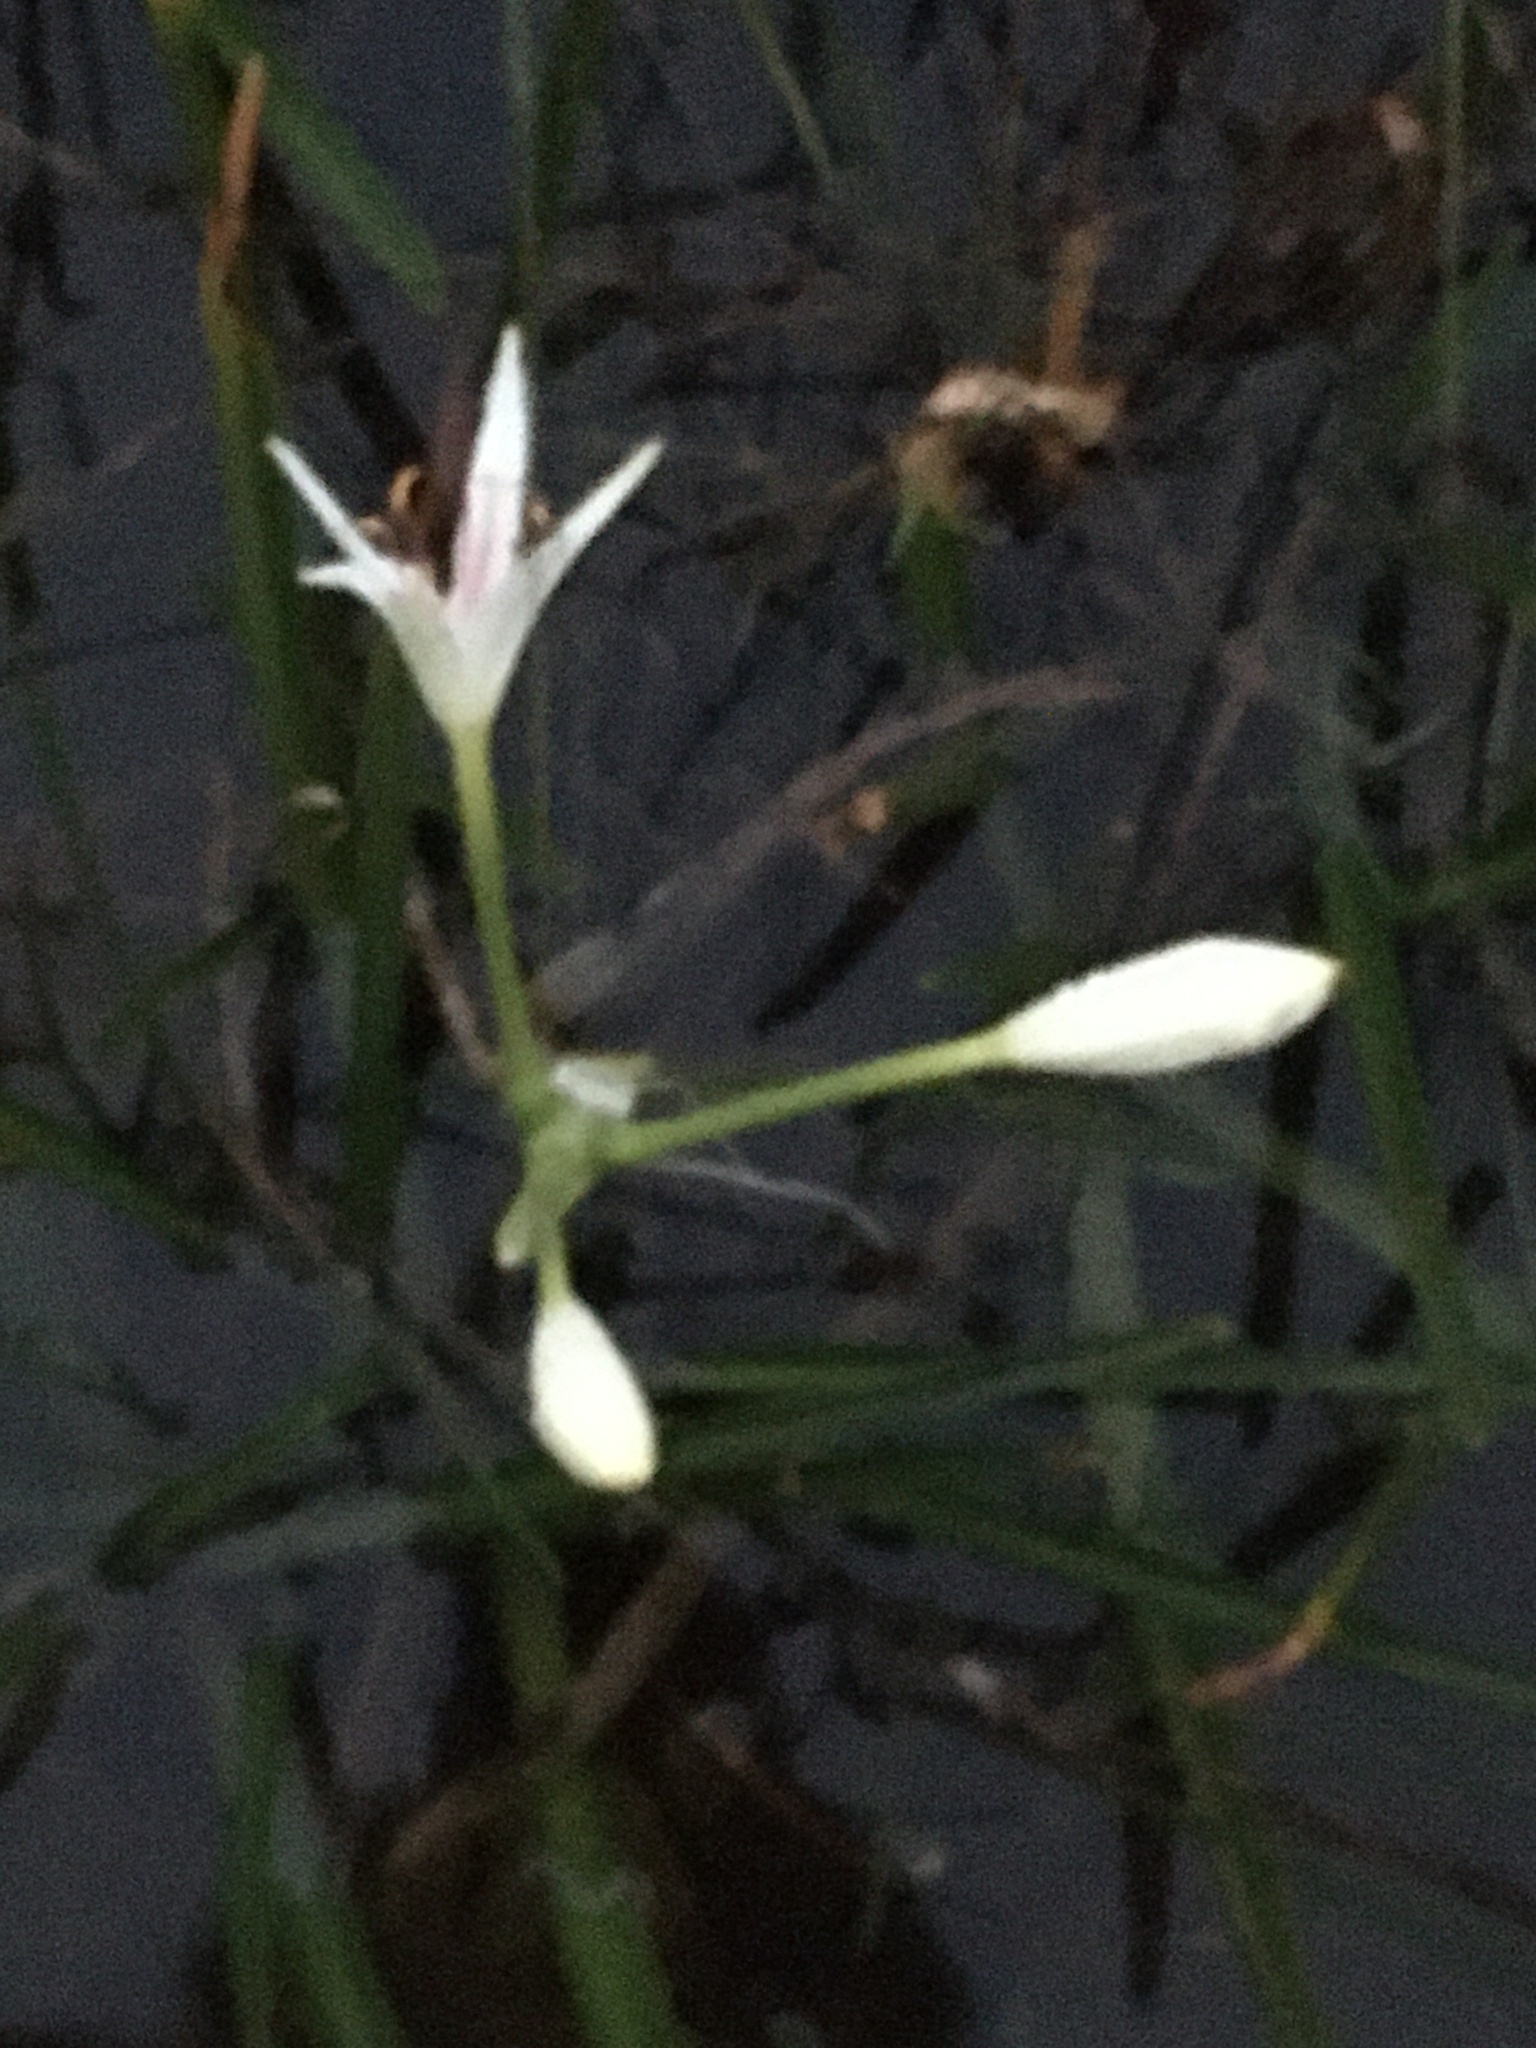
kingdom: Plantae
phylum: Tracheophyta
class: Liliopsida
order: Asparagales
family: Amaryllidaceae
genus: Crinum
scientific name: Crinum americanum
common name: Florida swamp-lily
